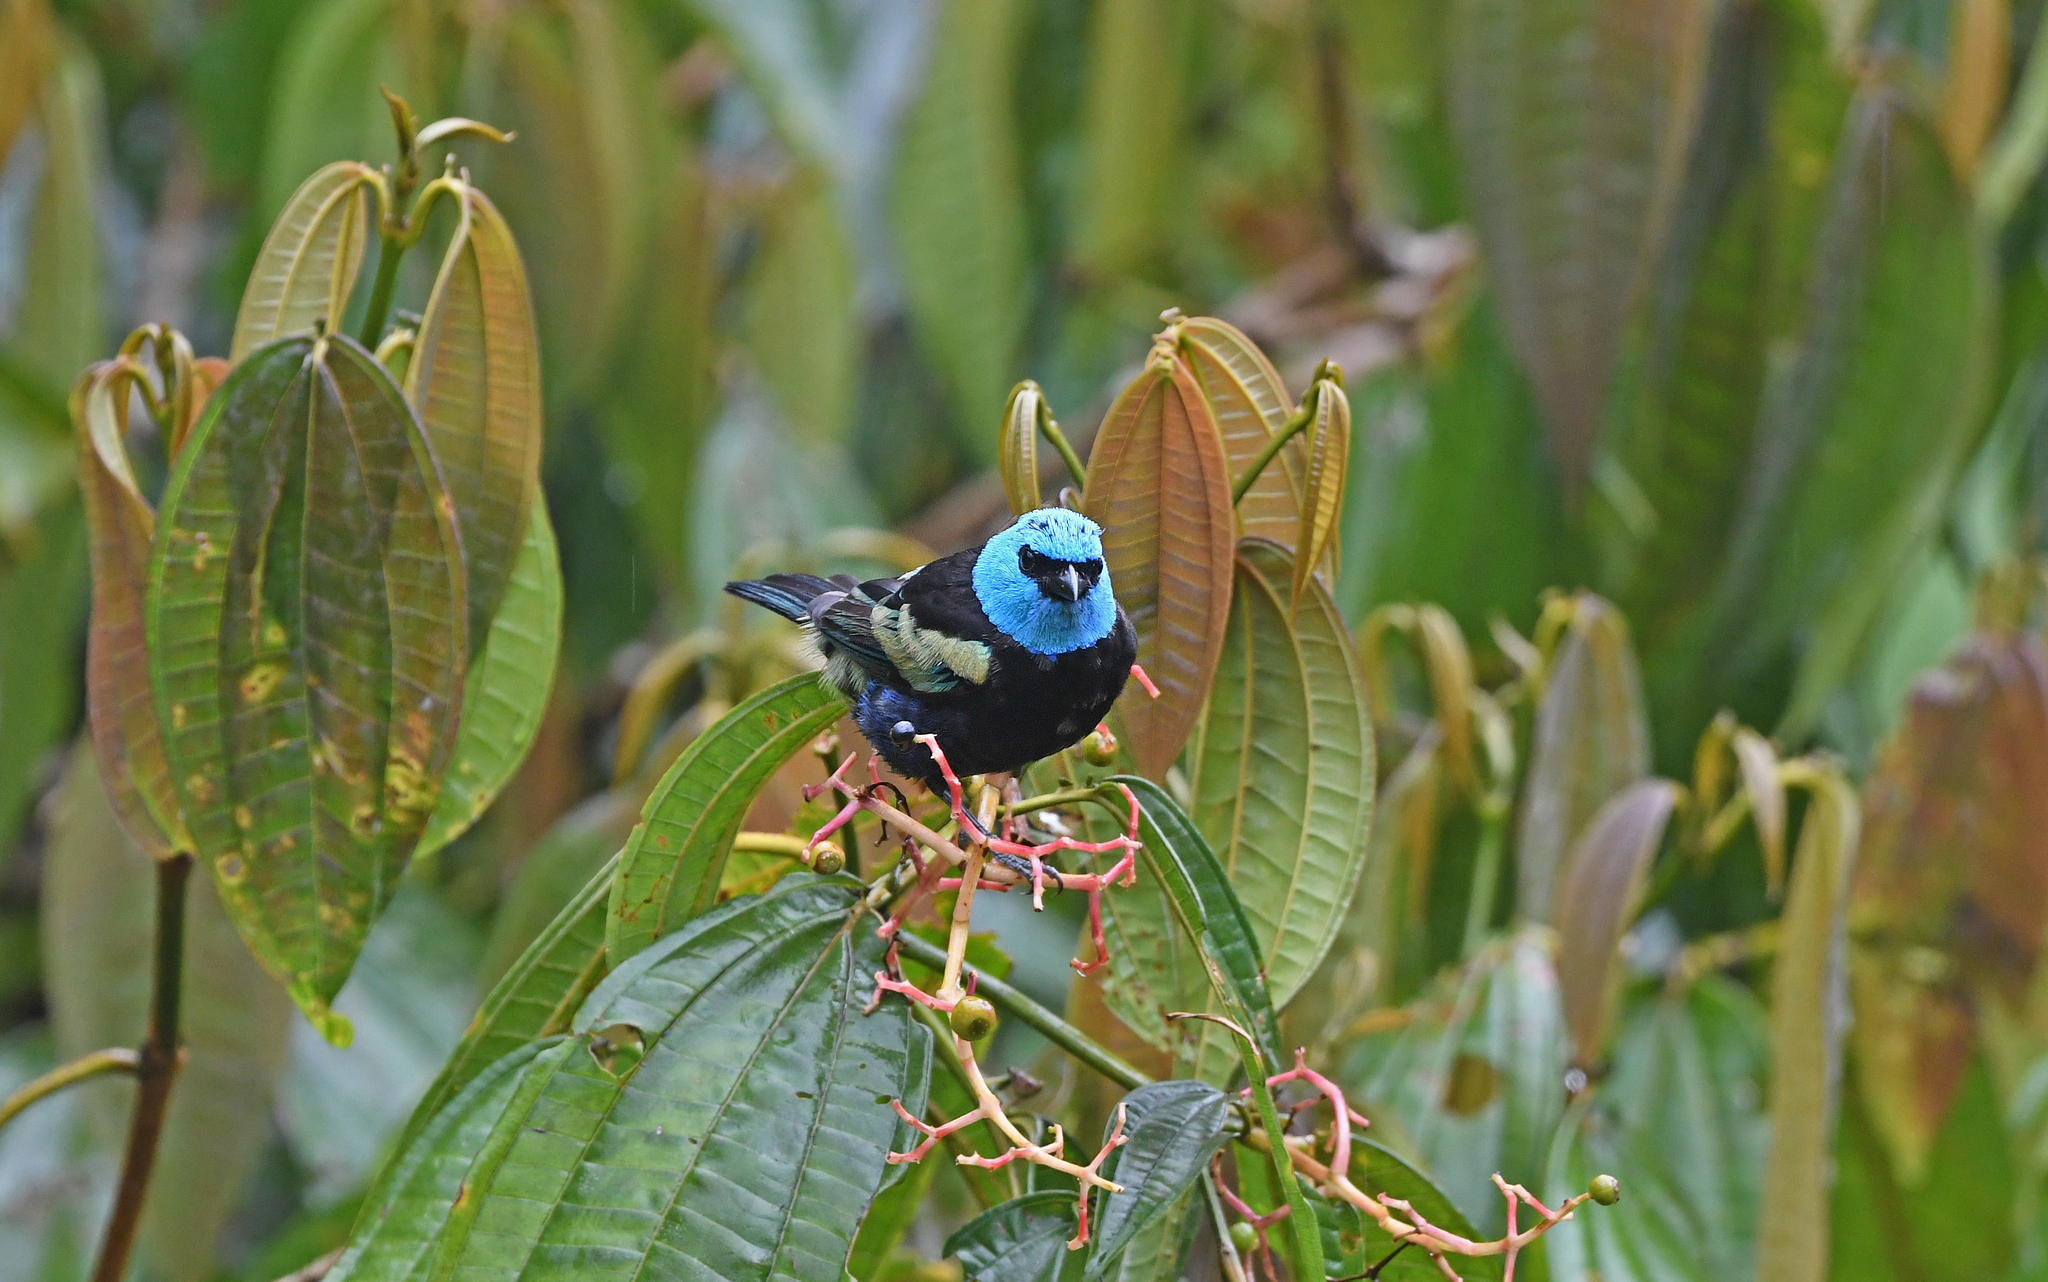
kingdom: Animalia
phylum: Chordata
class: Aves
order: Passeriformes
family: Thraupidae
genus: Stilpnia
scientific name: Stilpnia cyanicollis
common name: Blue-necked tanager
